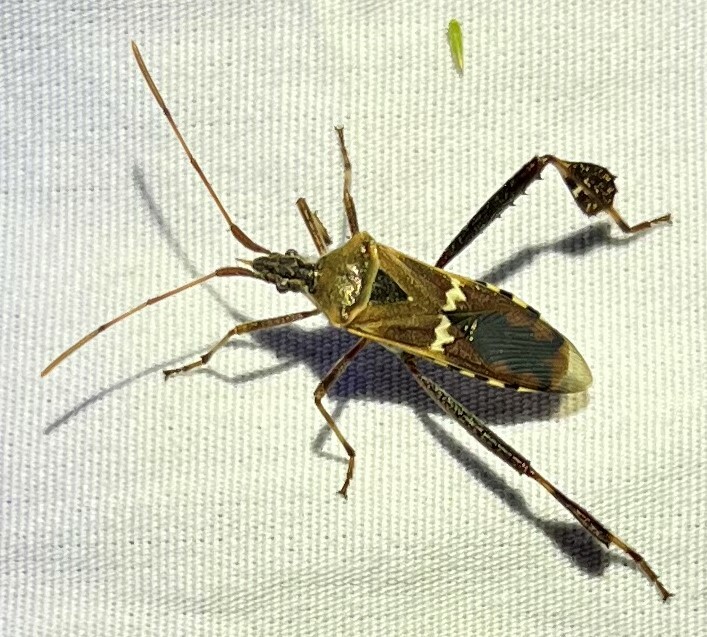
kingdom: Animalia
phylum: Arthropoda
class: Insecta
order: Hemiptera
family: Coreidae
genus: Leptoglossus
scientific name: Leptoglossus clypealis
